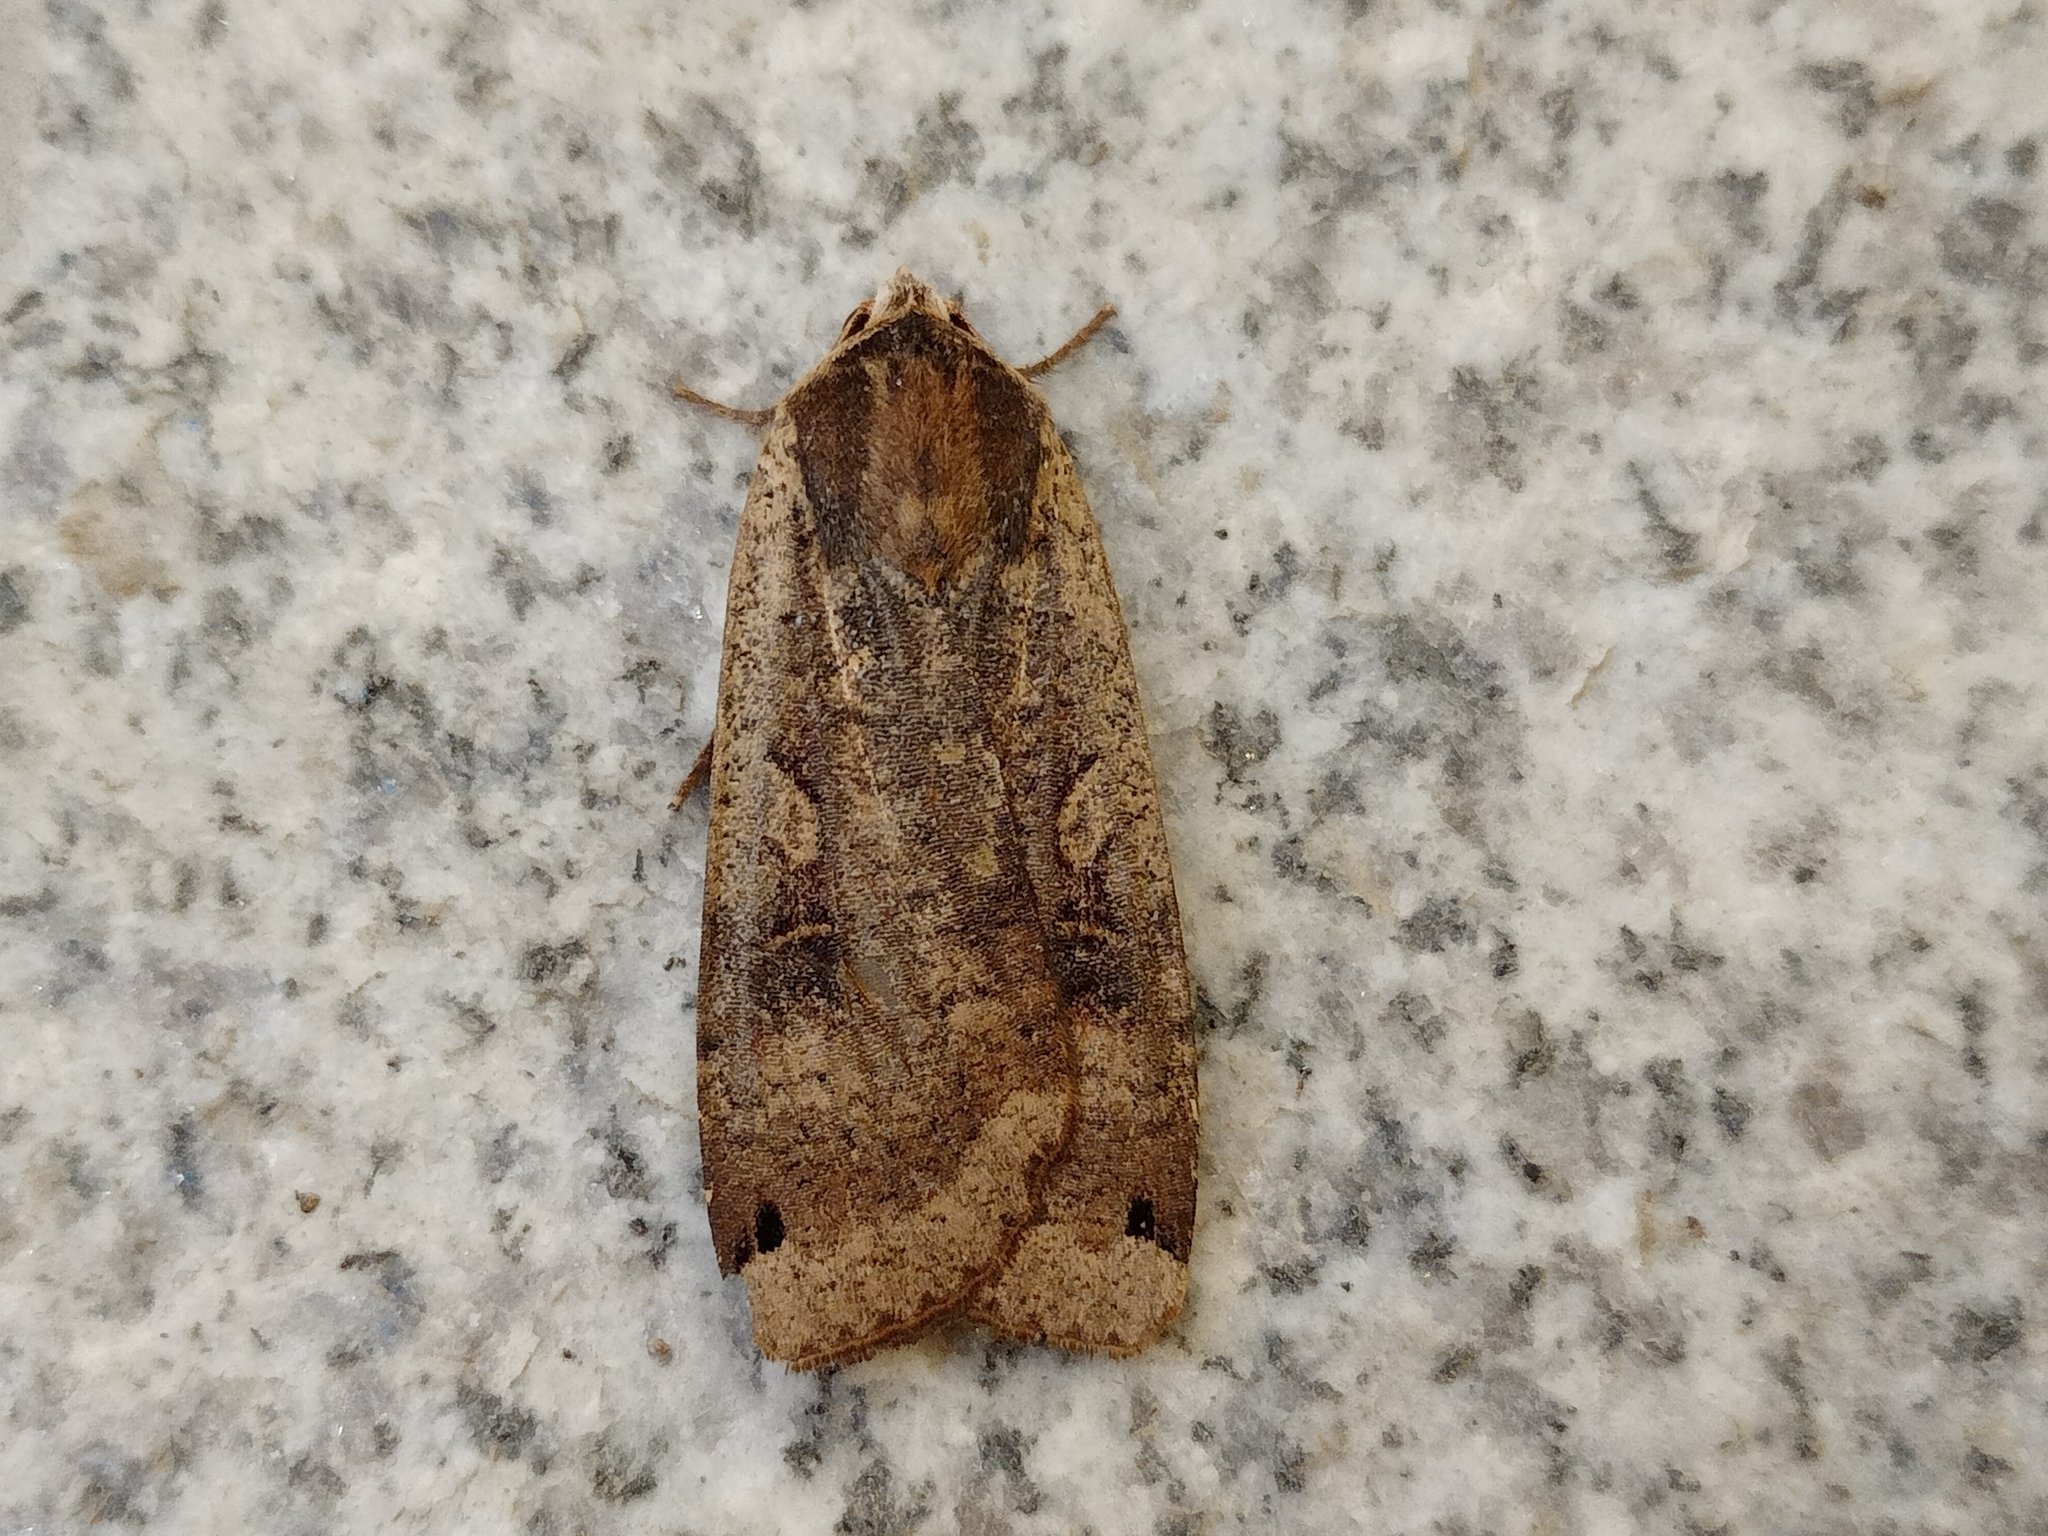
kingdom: Animalia
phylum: Arthropoda
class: Insecta
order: Lepidoptera
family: Noctuidae
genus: Noctua
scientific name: Noctua pronuba
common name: Large yellow underwing
